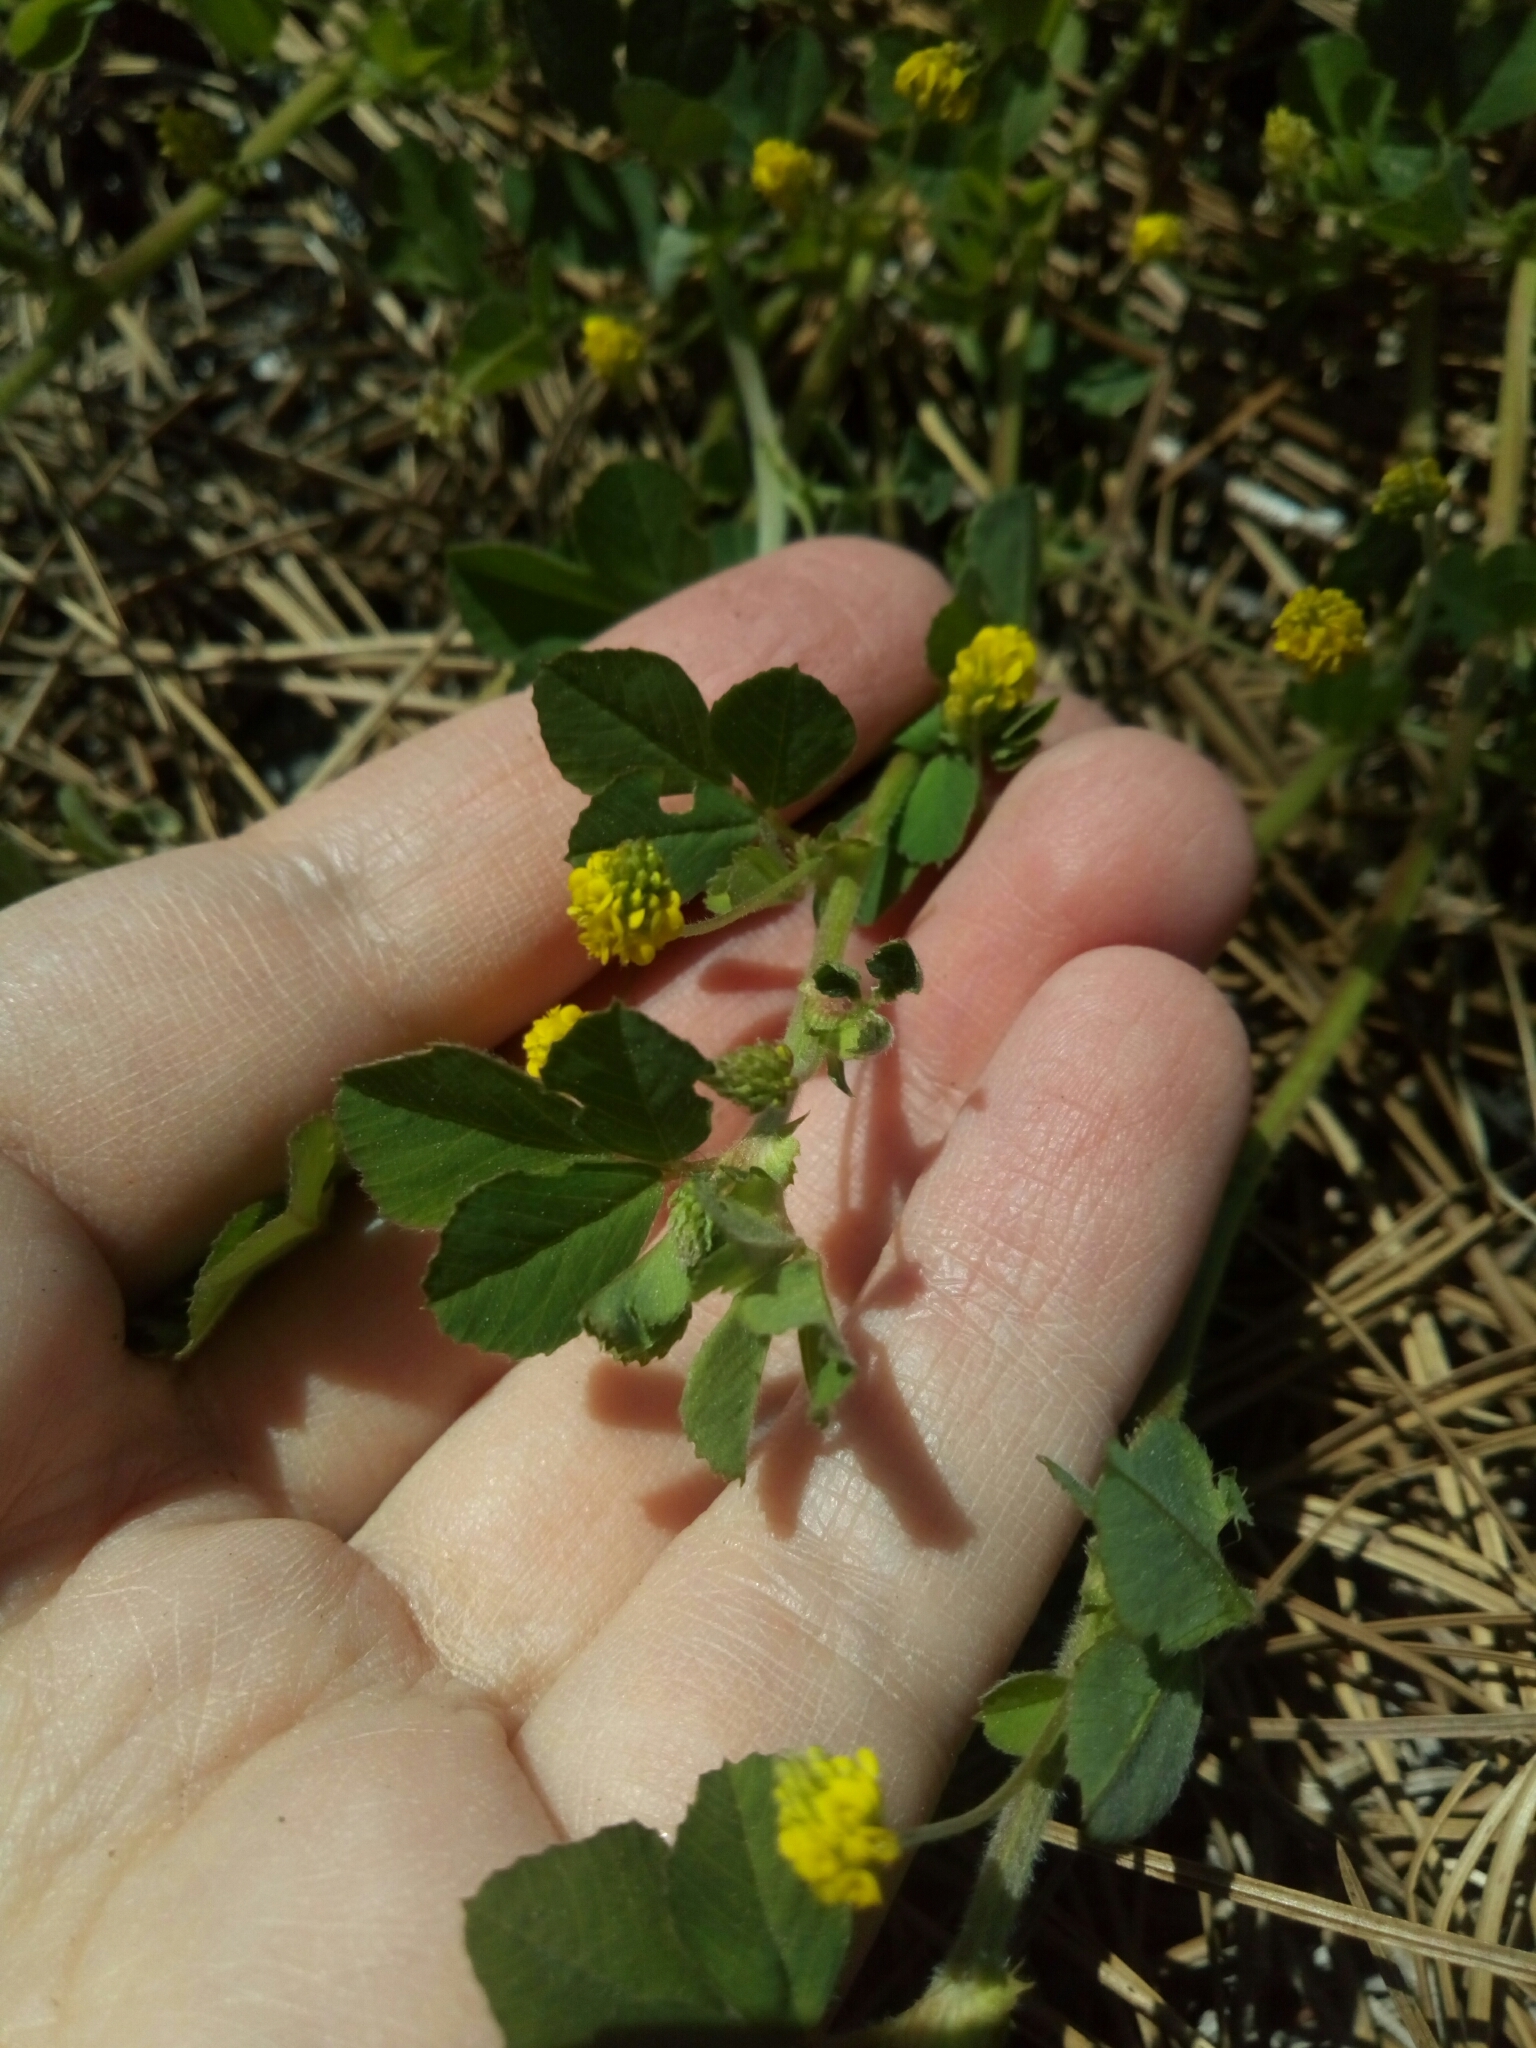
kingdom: Plantae
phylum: Tracheophyta
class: Magnoliopsida
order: Fabales
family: Fabaceae
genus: Medicago
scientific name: Medicago lupulina
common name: Black medick
